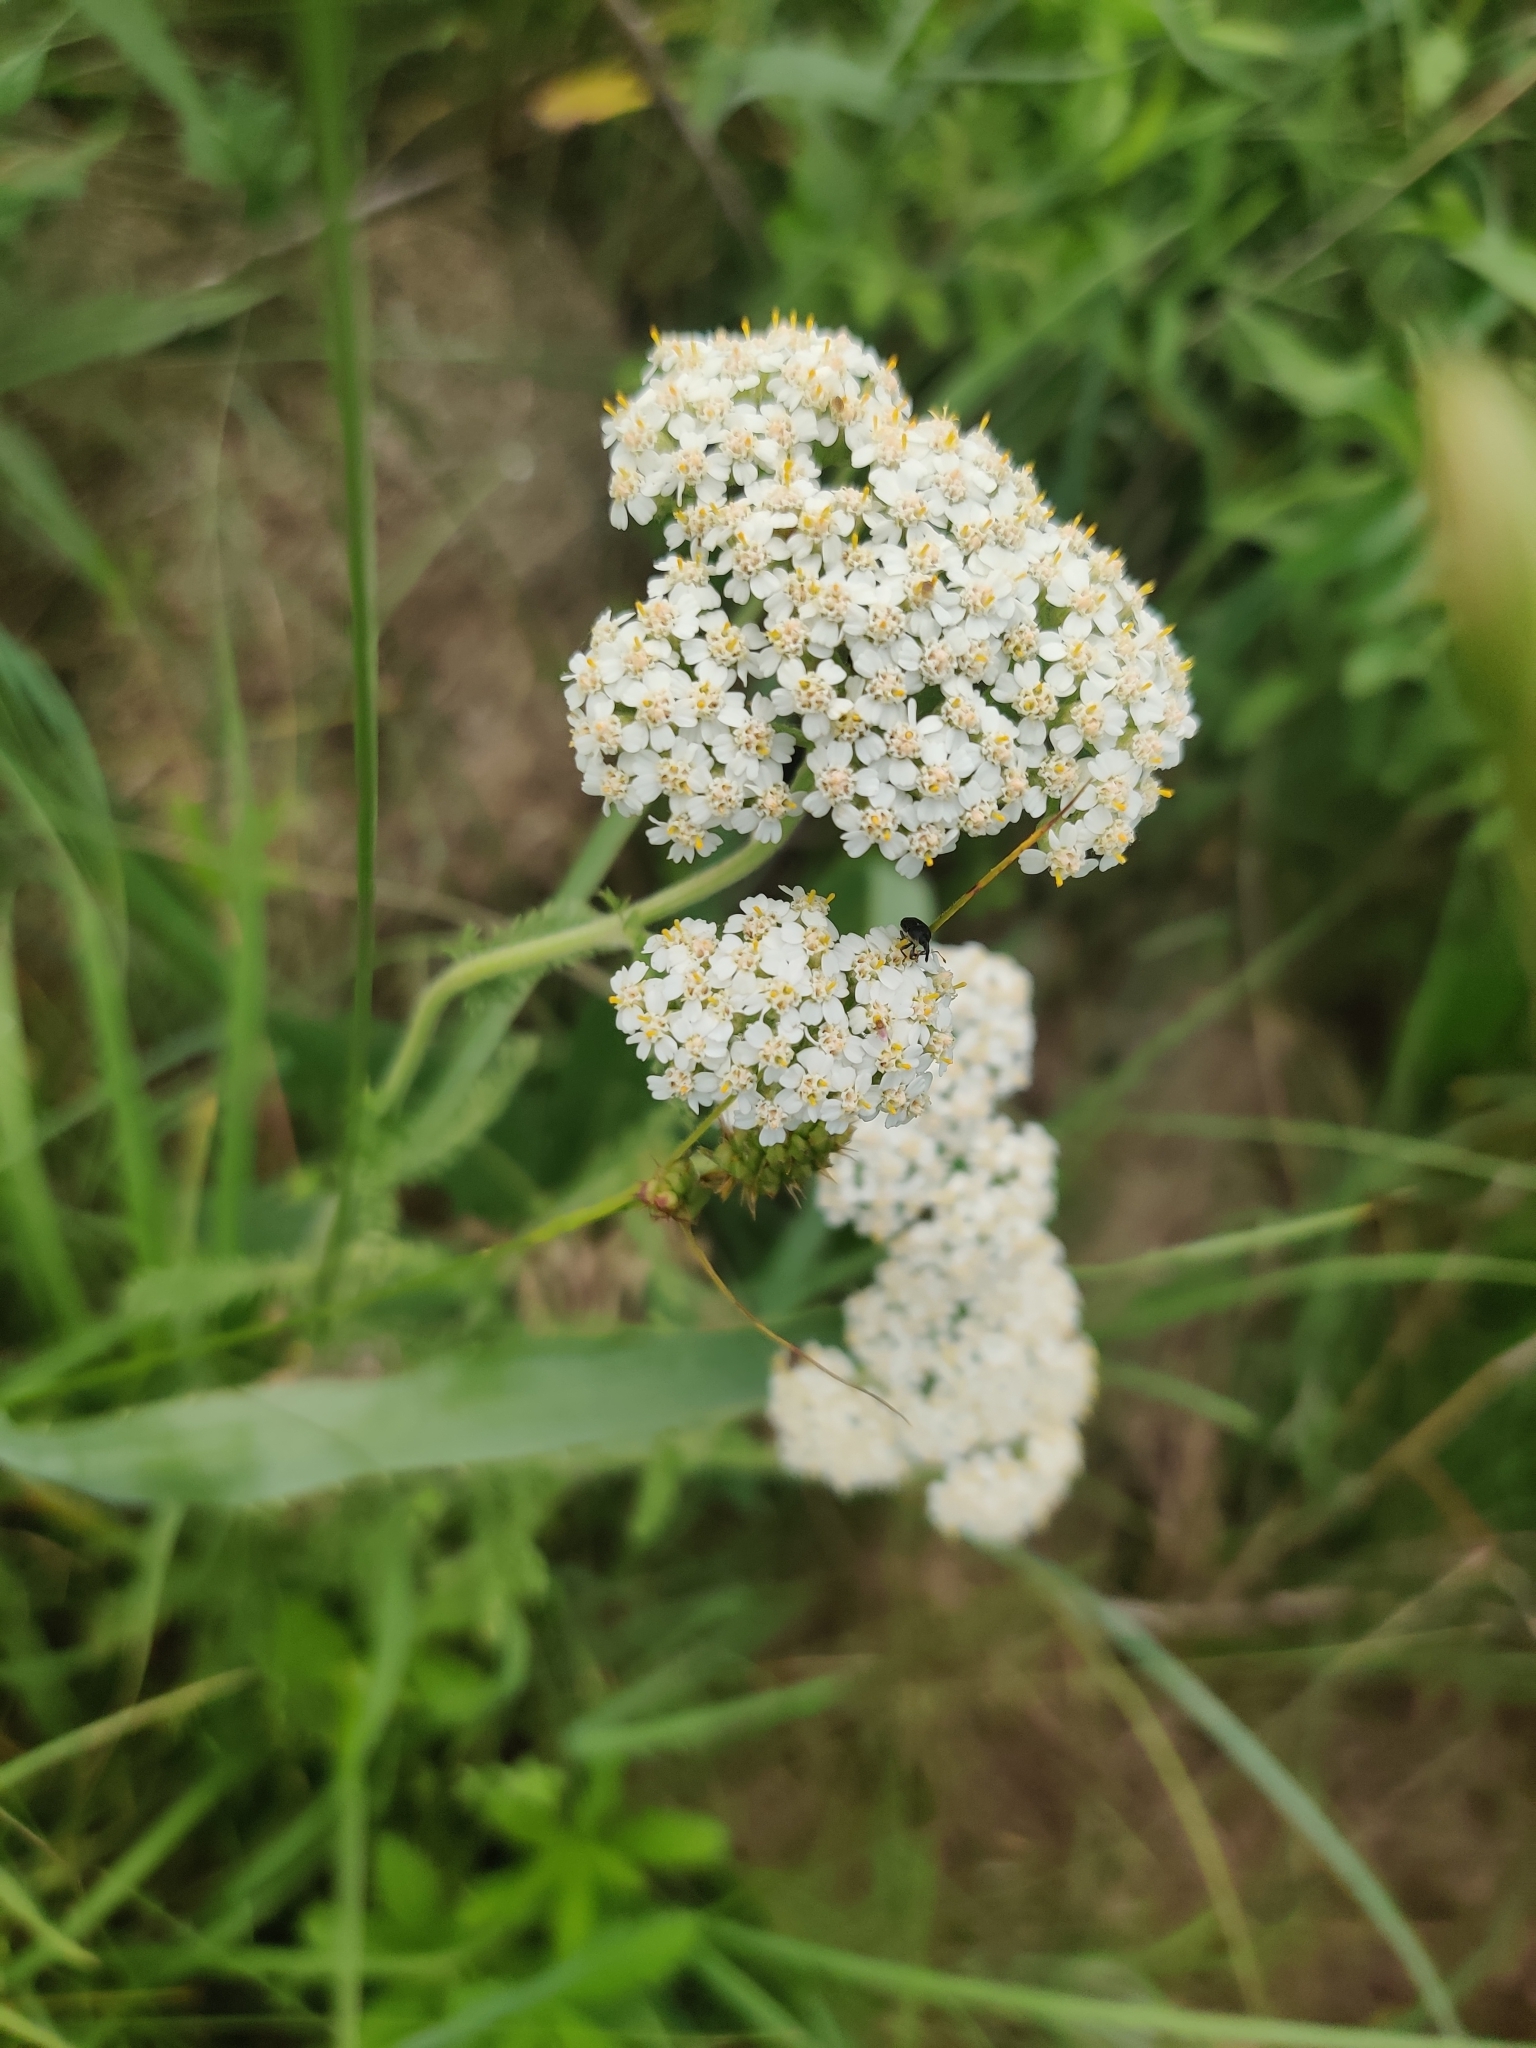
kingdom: Plantae
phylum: Tracheophyta
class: Magnoliopsida
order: Asterales
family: Asteraceae
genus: Achillea
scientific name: Achillea millefolium
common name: Yarrow
